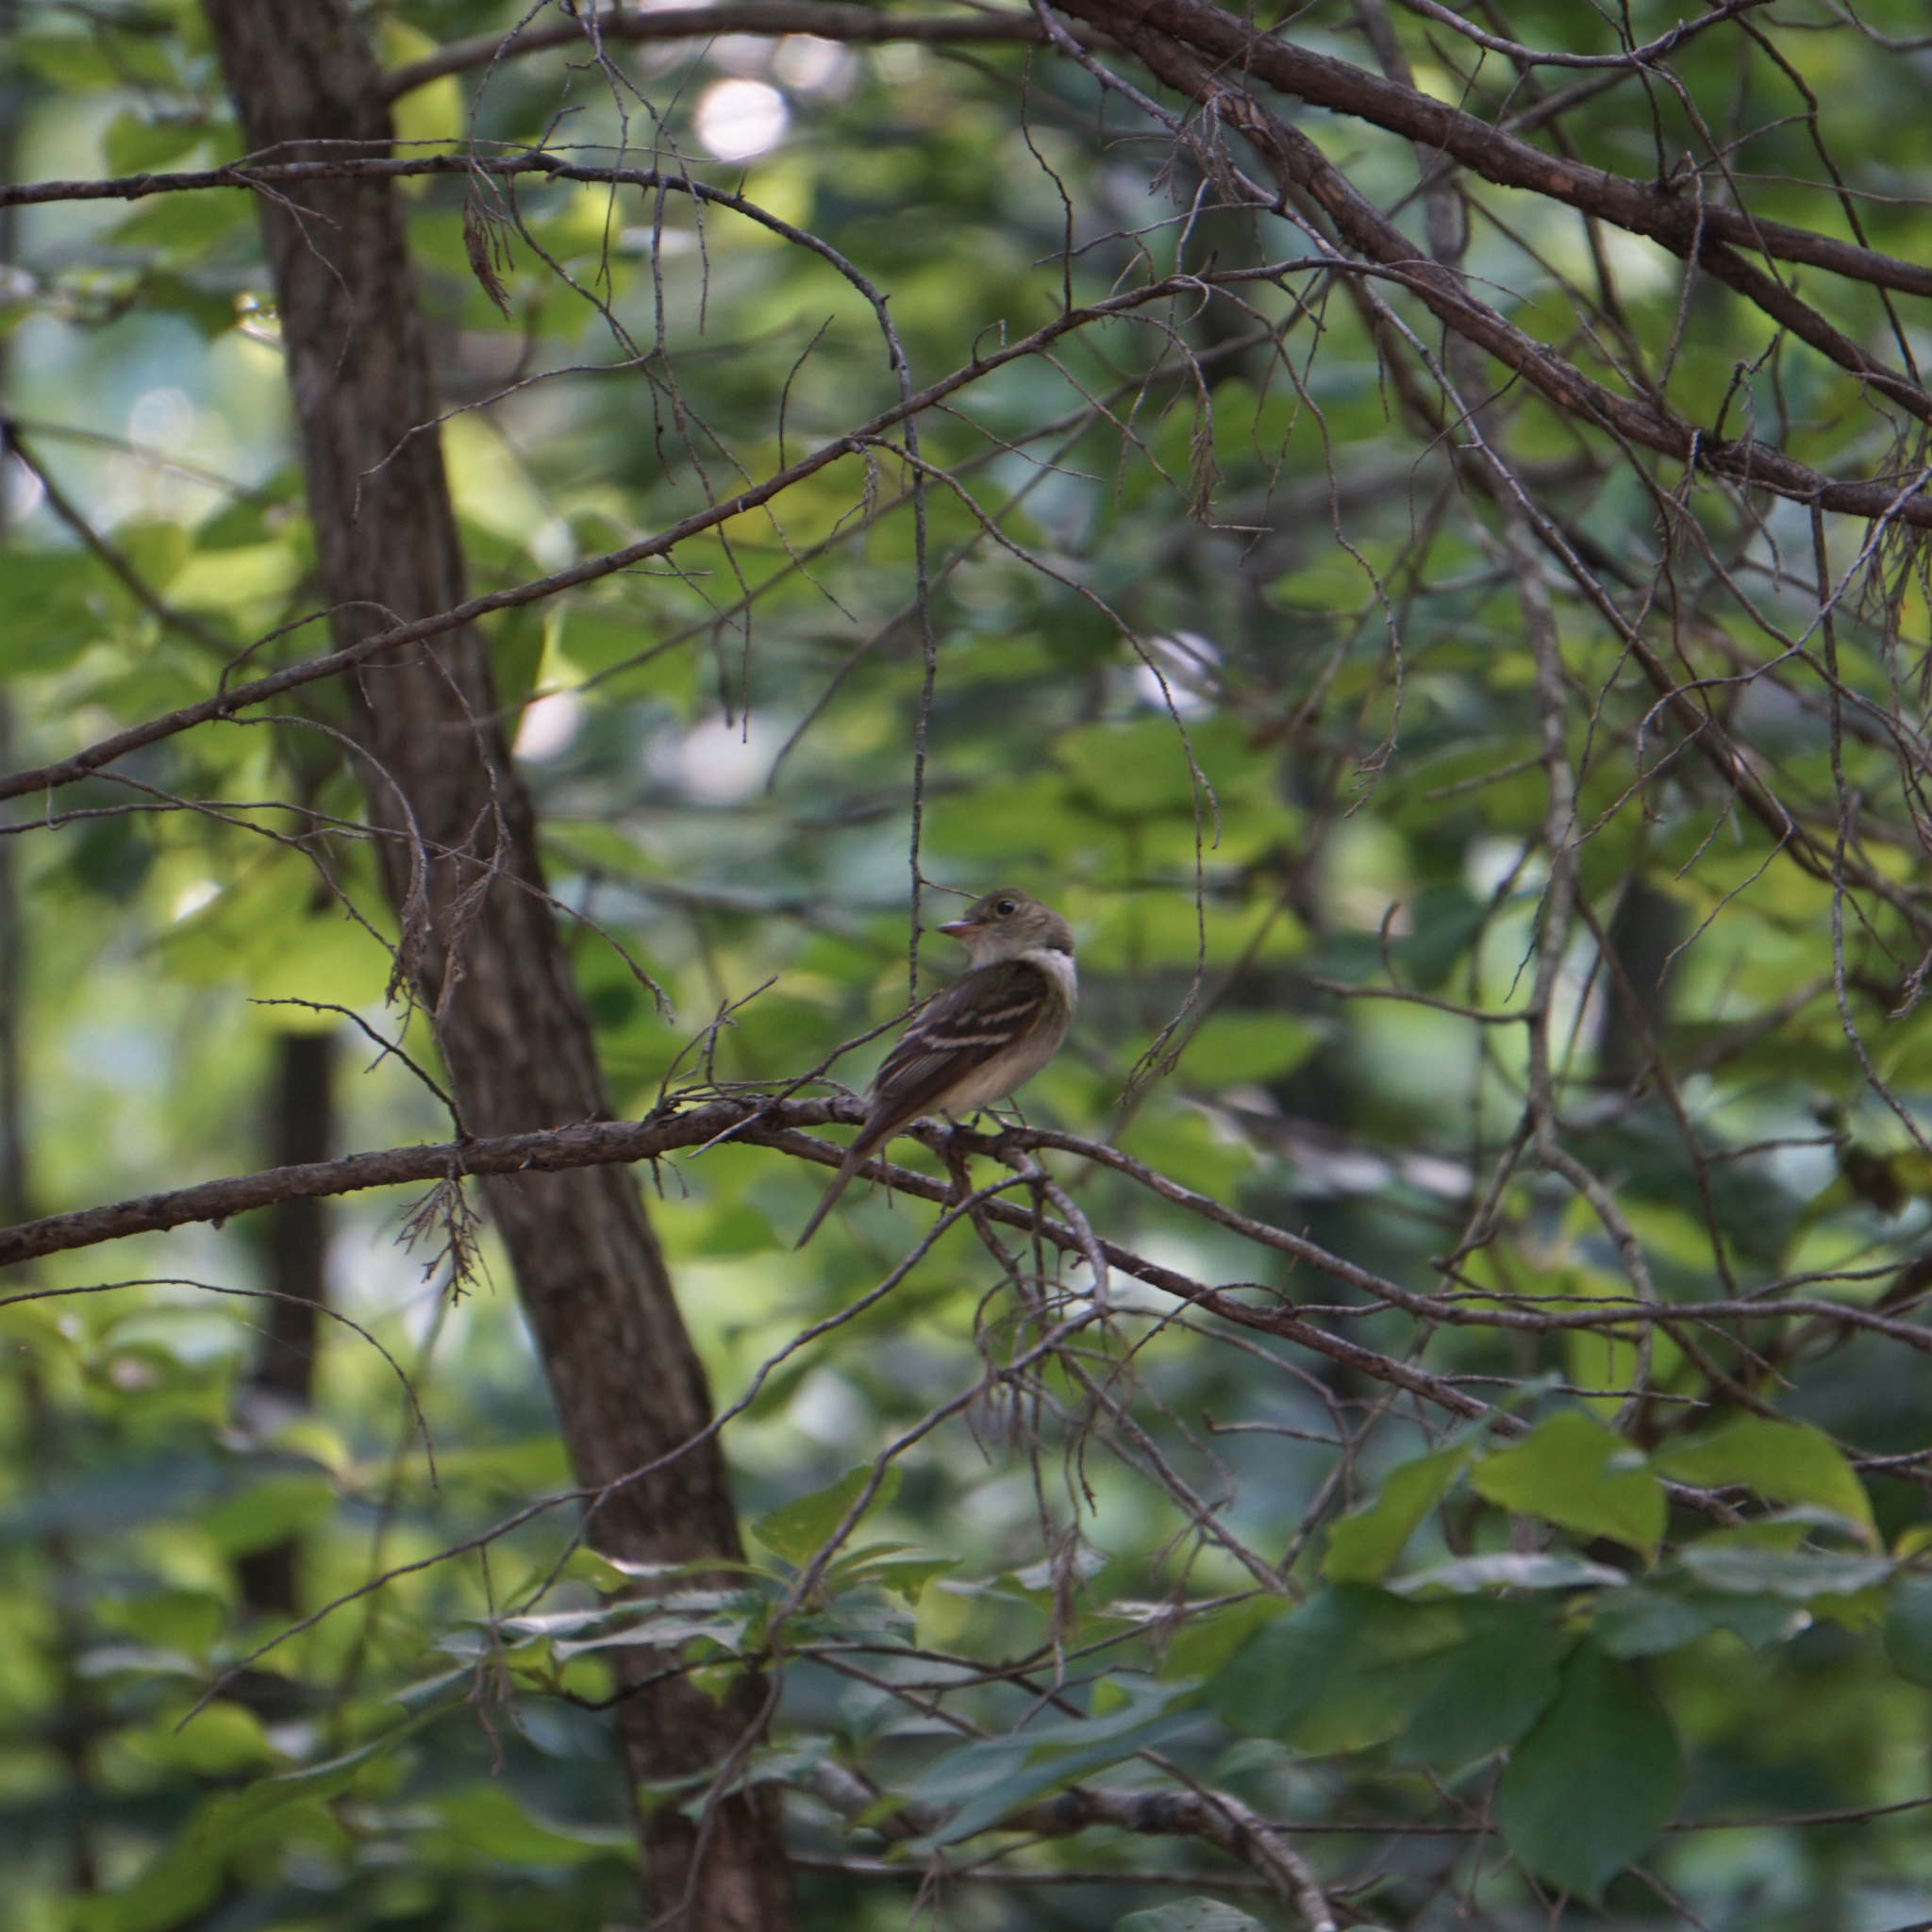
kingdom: Animalia
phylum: Chordata
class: Aves
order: Passeriformes
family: Tyrannidae
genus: Empidonax
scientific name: Empidonax virescens
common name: Acadian flycatcher
